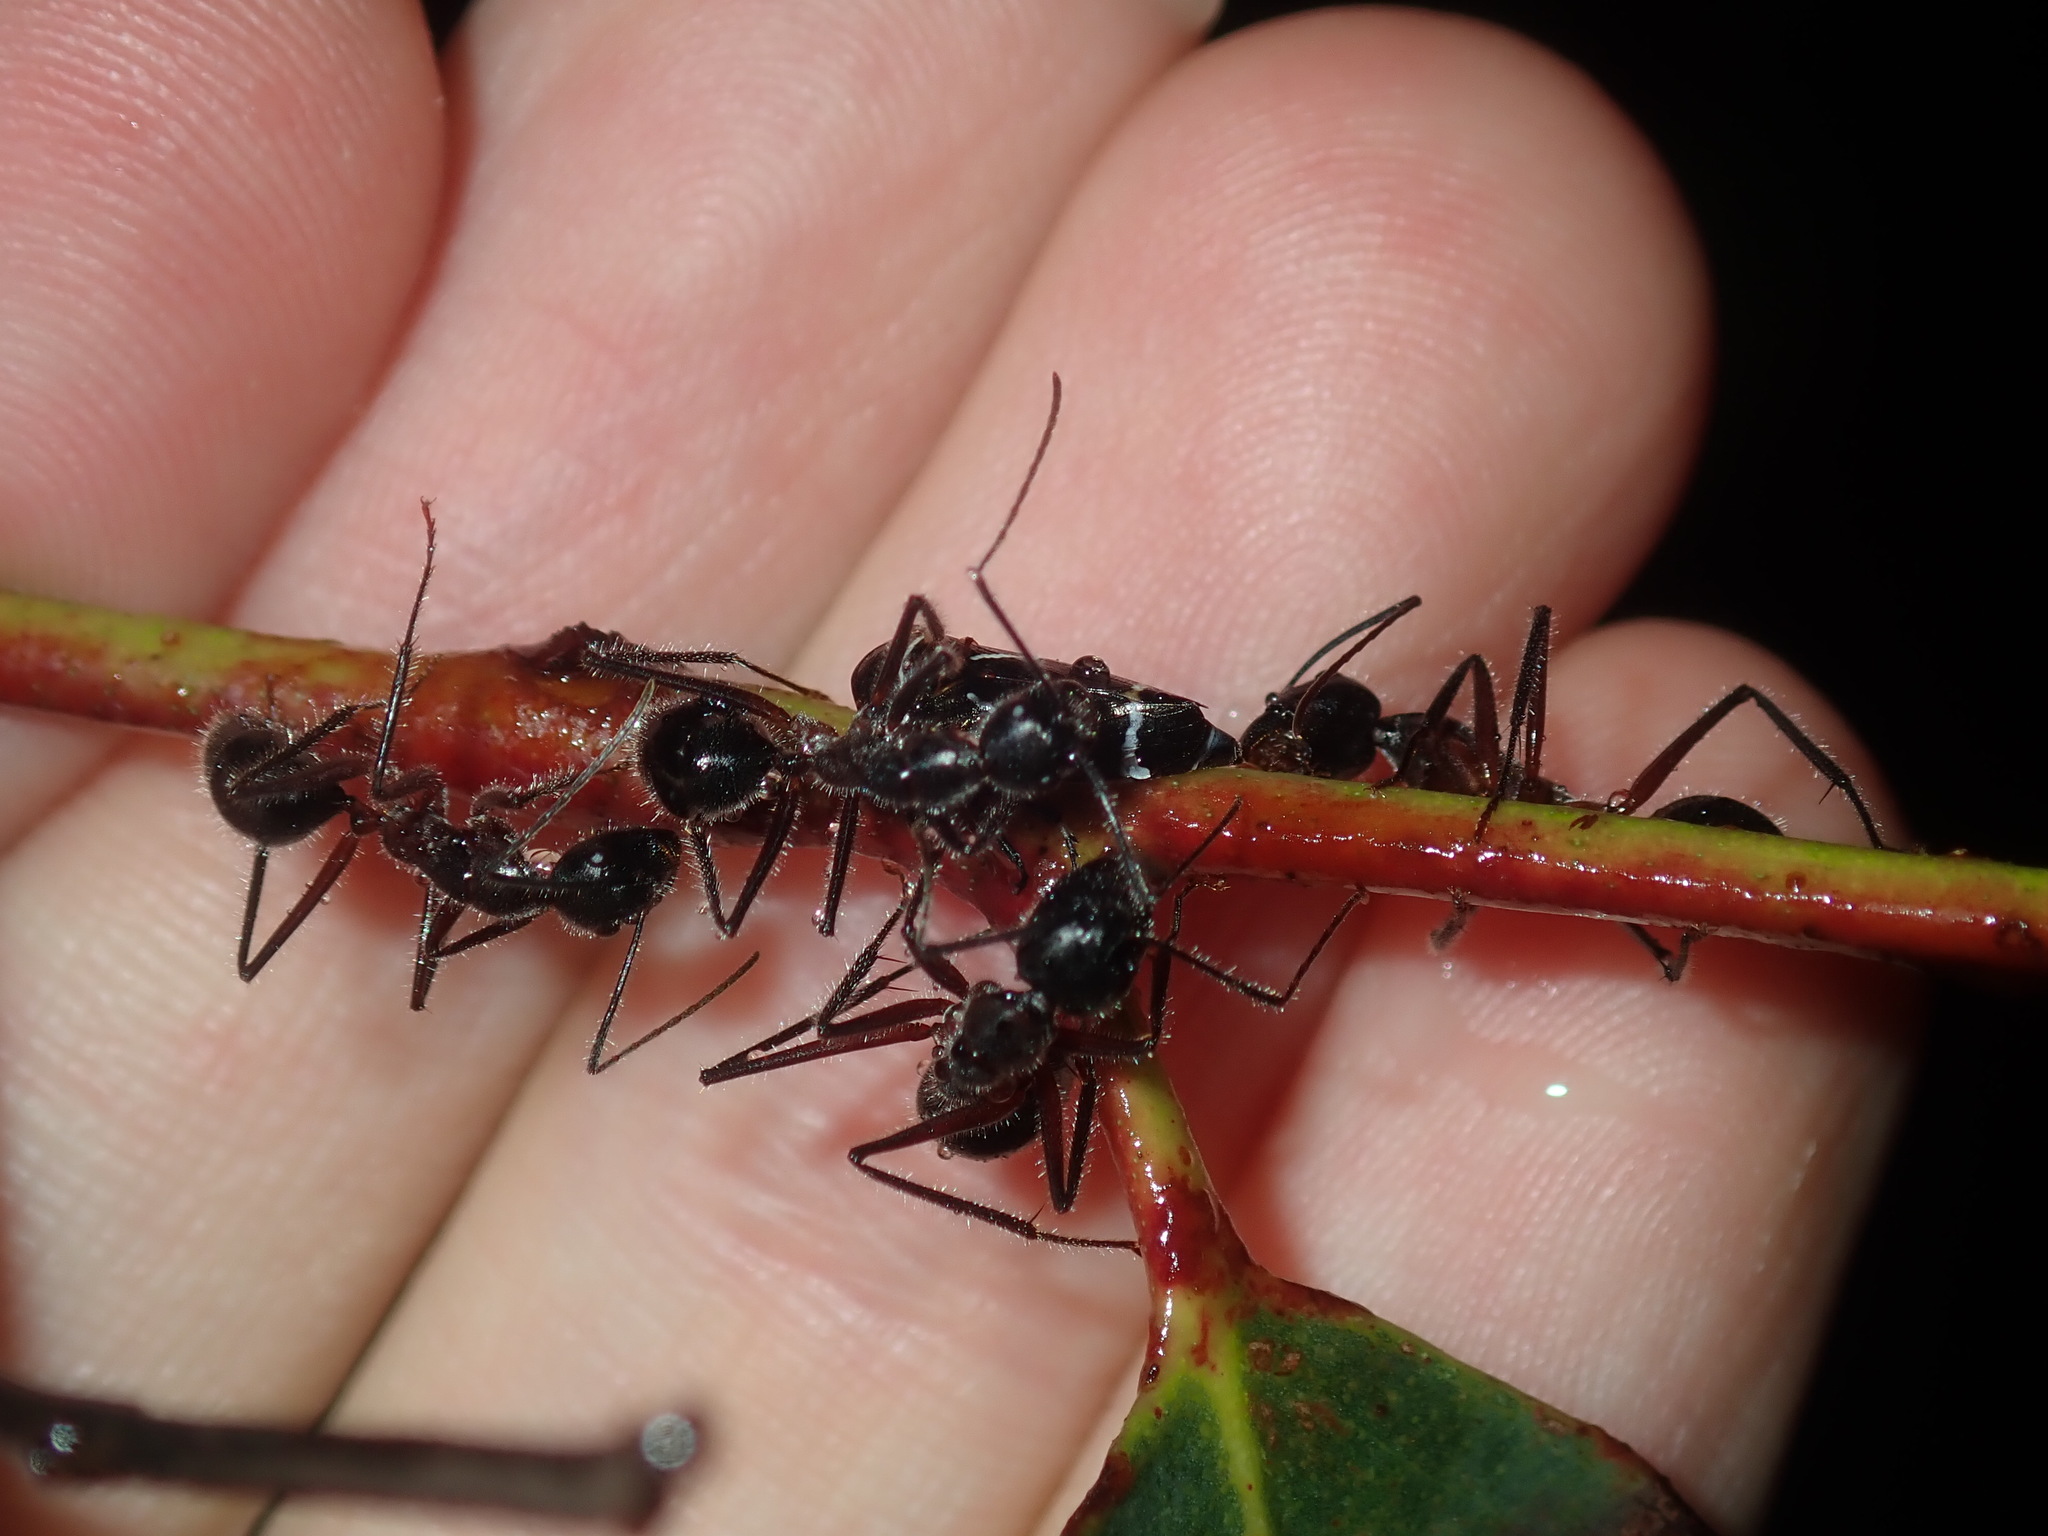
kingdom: Animalia
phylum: Arthropoda
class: Insecta
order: Hymenoptera
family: Formicidae
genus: Camponotus
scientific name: Camponotus intrepidus
